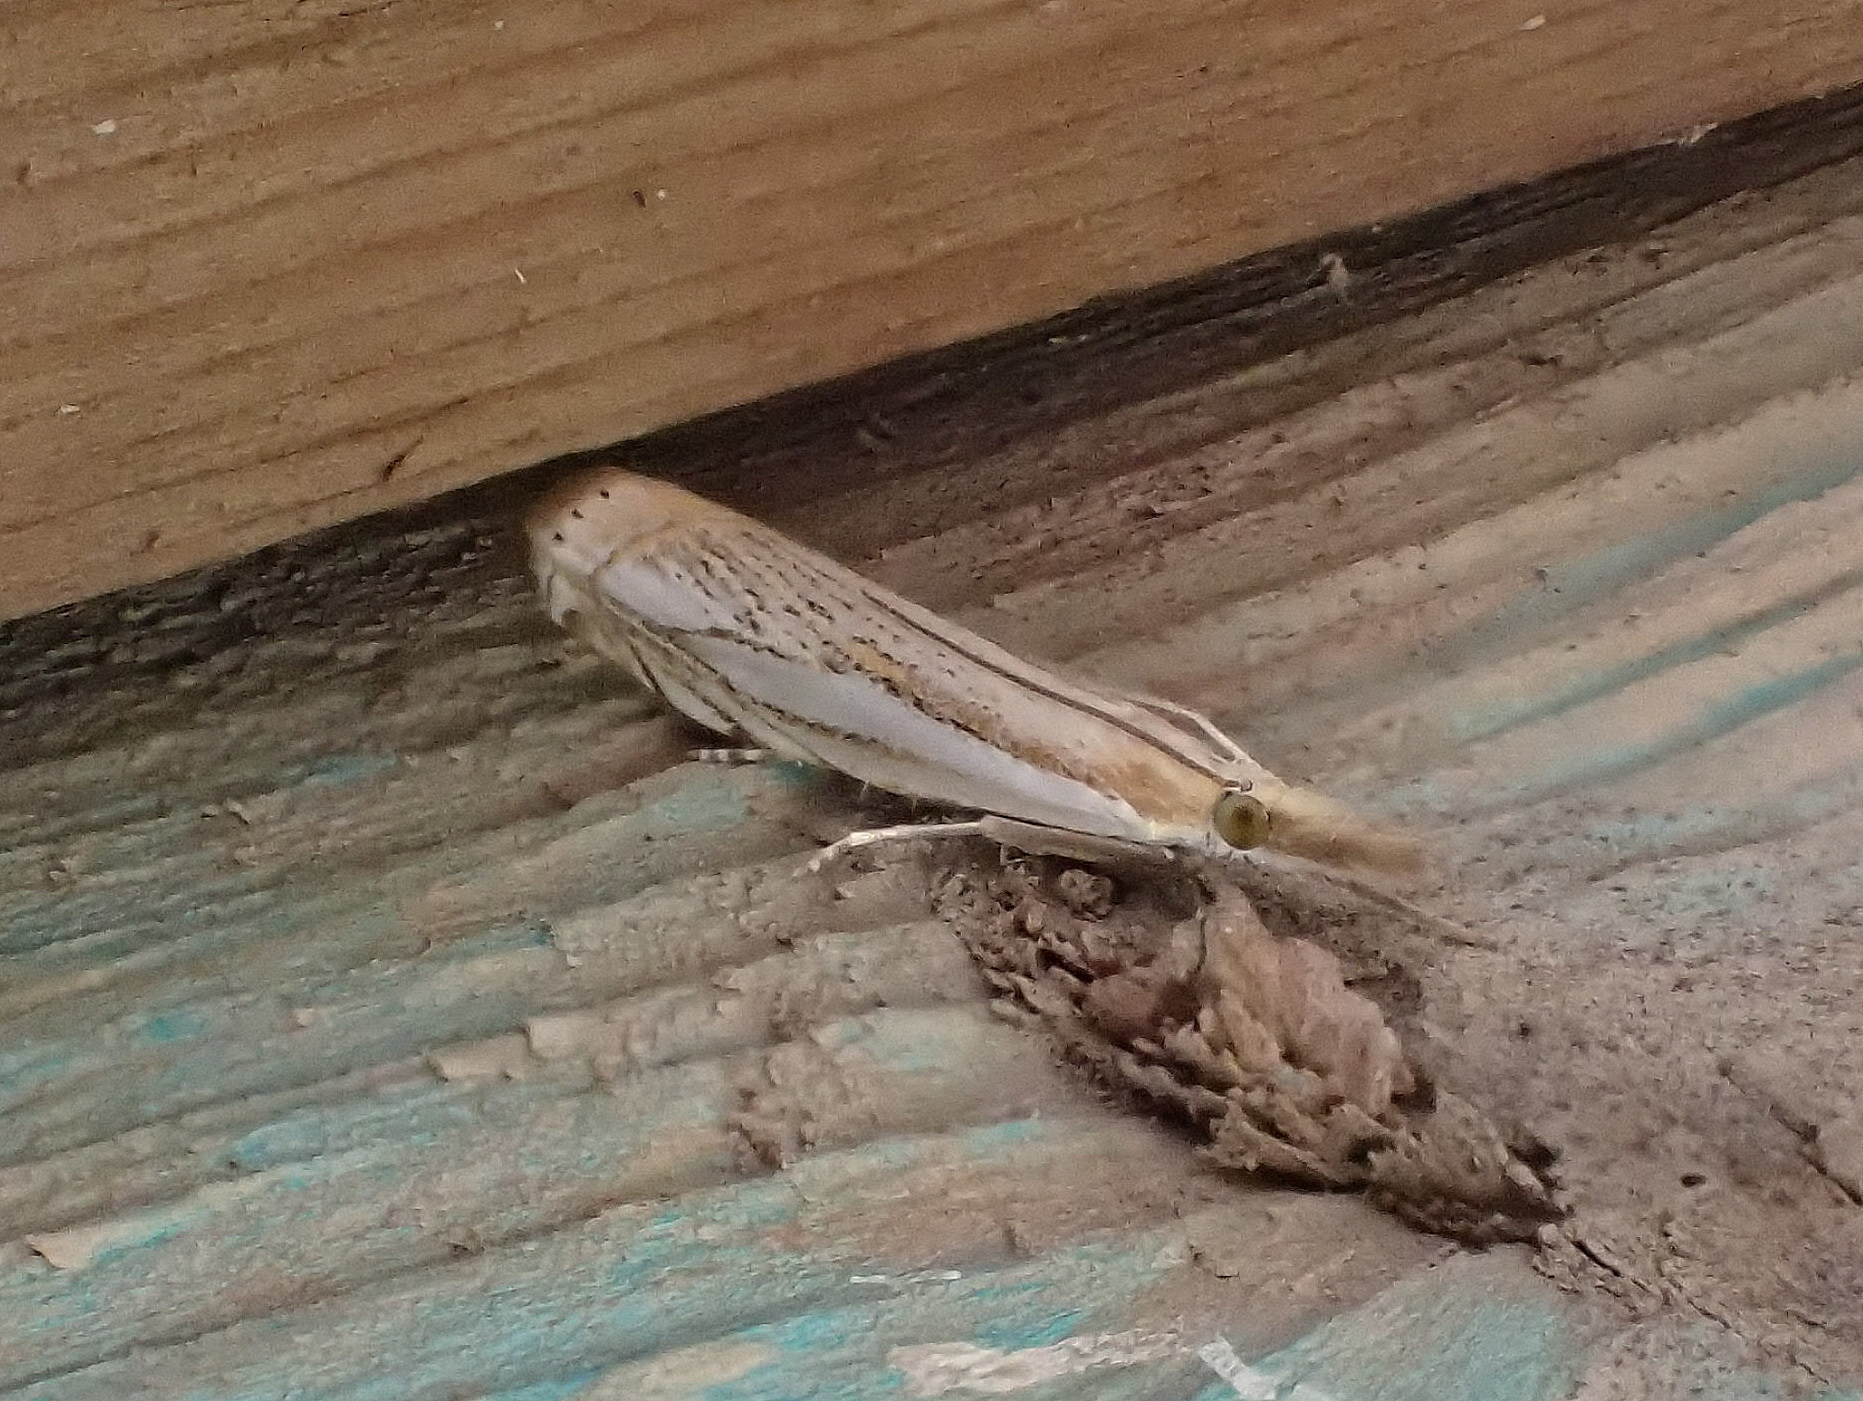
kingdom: Animalia
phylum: Arthropoda
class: Insecta
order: Lepidoptera
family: Crambidae
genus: Crambus
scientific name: Crambus saltuellus
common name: Pasture grass-veneer
